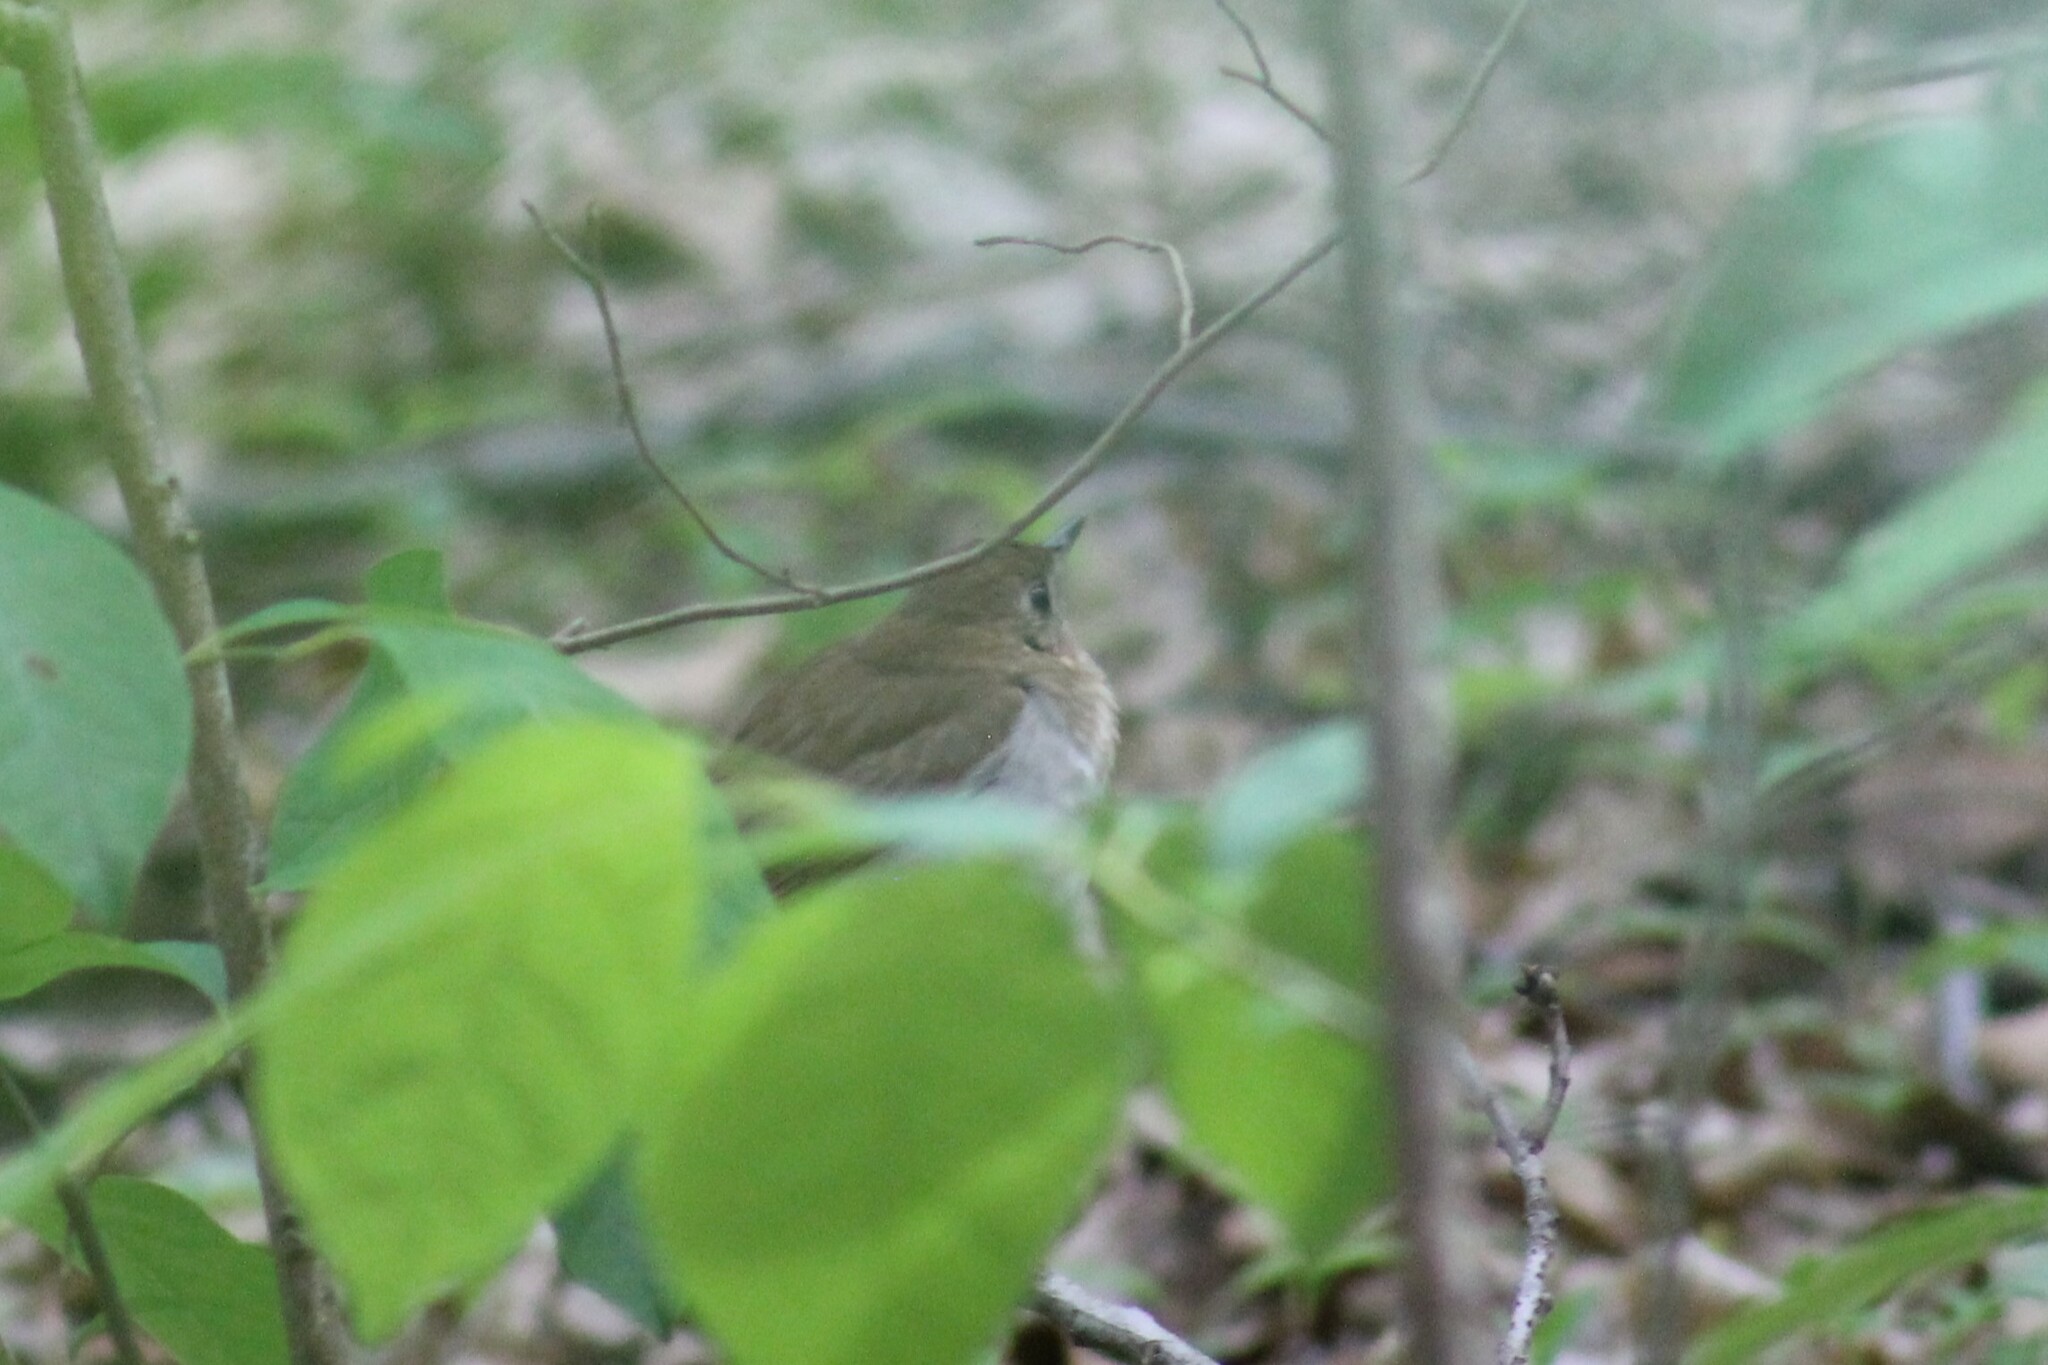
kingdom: Animalia
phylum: Chordata
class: Aves
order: Passeriformes
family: Turdidae
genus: Catharus
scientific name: Catharus fuscescens
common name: Veery
